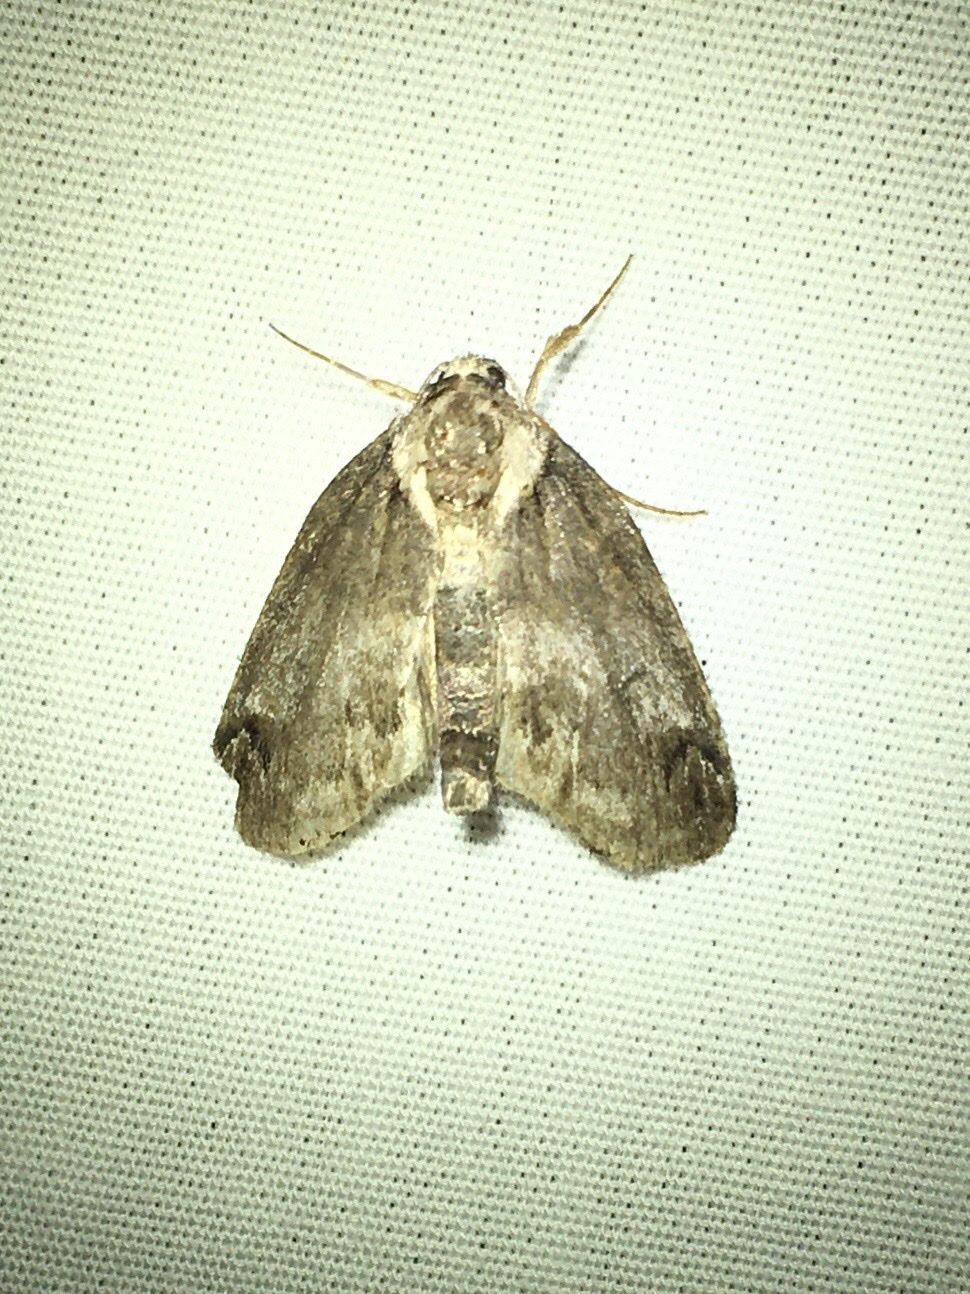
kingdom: Animalia
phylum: Arthropoda
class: Insecta
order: Lepidoptera
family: Nolidae
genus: Baileya
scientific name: Baileya ophthalmica
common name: Eyed baileya moth
